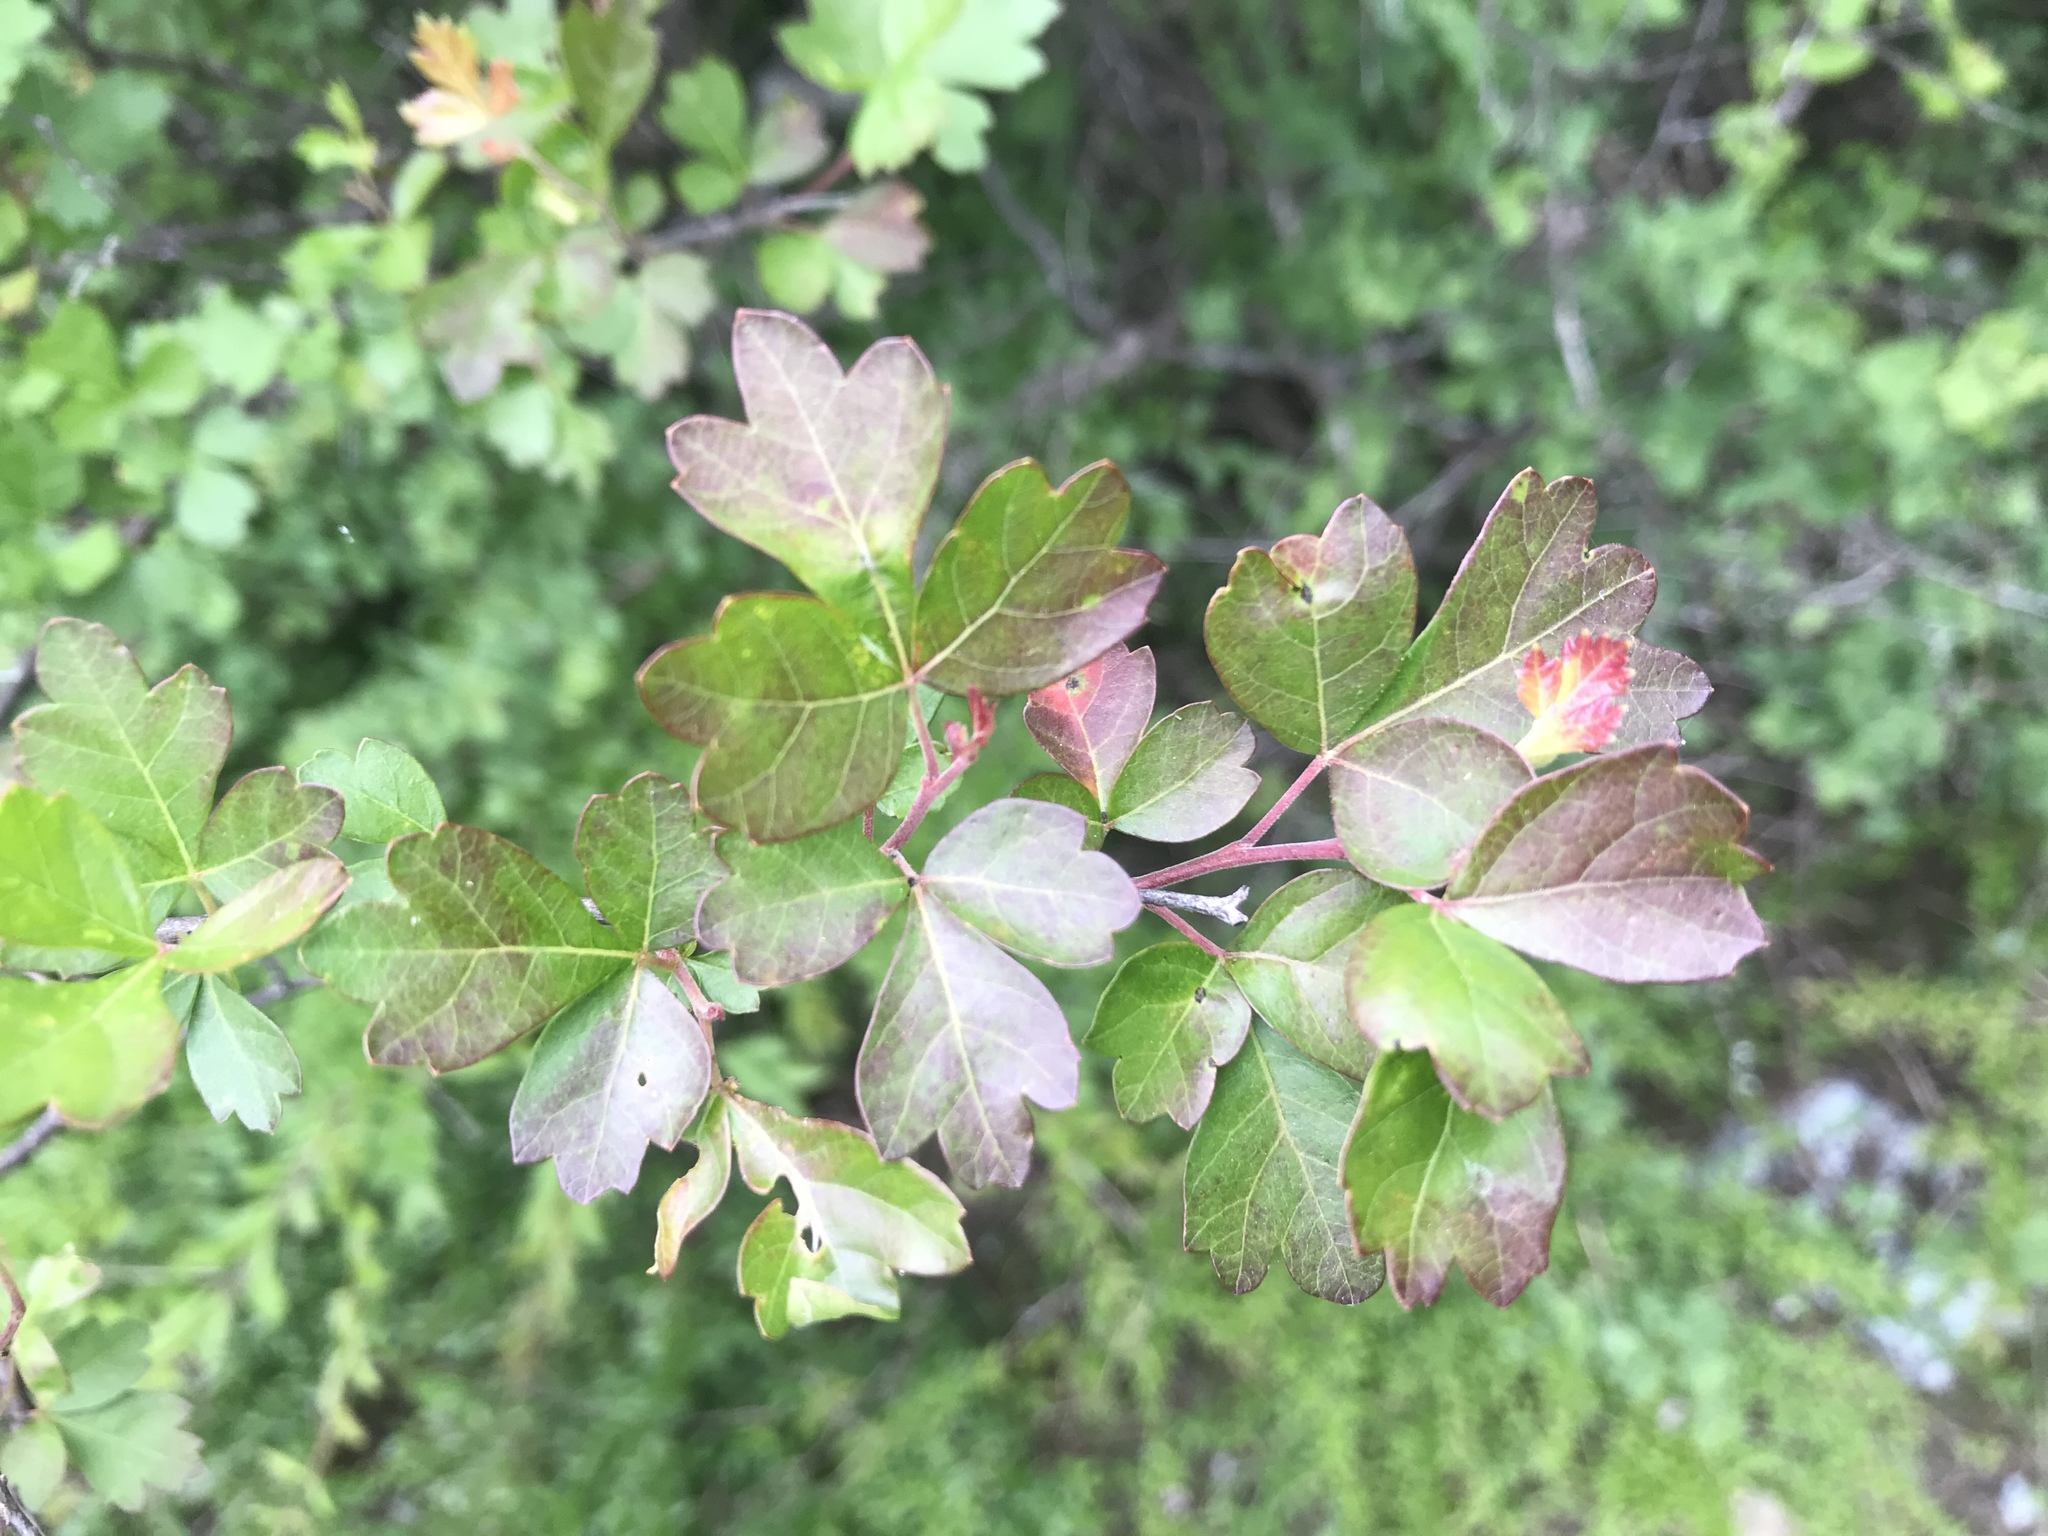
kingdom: Plantae
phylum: Tracheophyta
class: Magnoliopsida
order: Sapindales
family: Anacardiaceae
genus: Rhus
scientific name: Rhus aromatica
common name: Aromatic sumac
